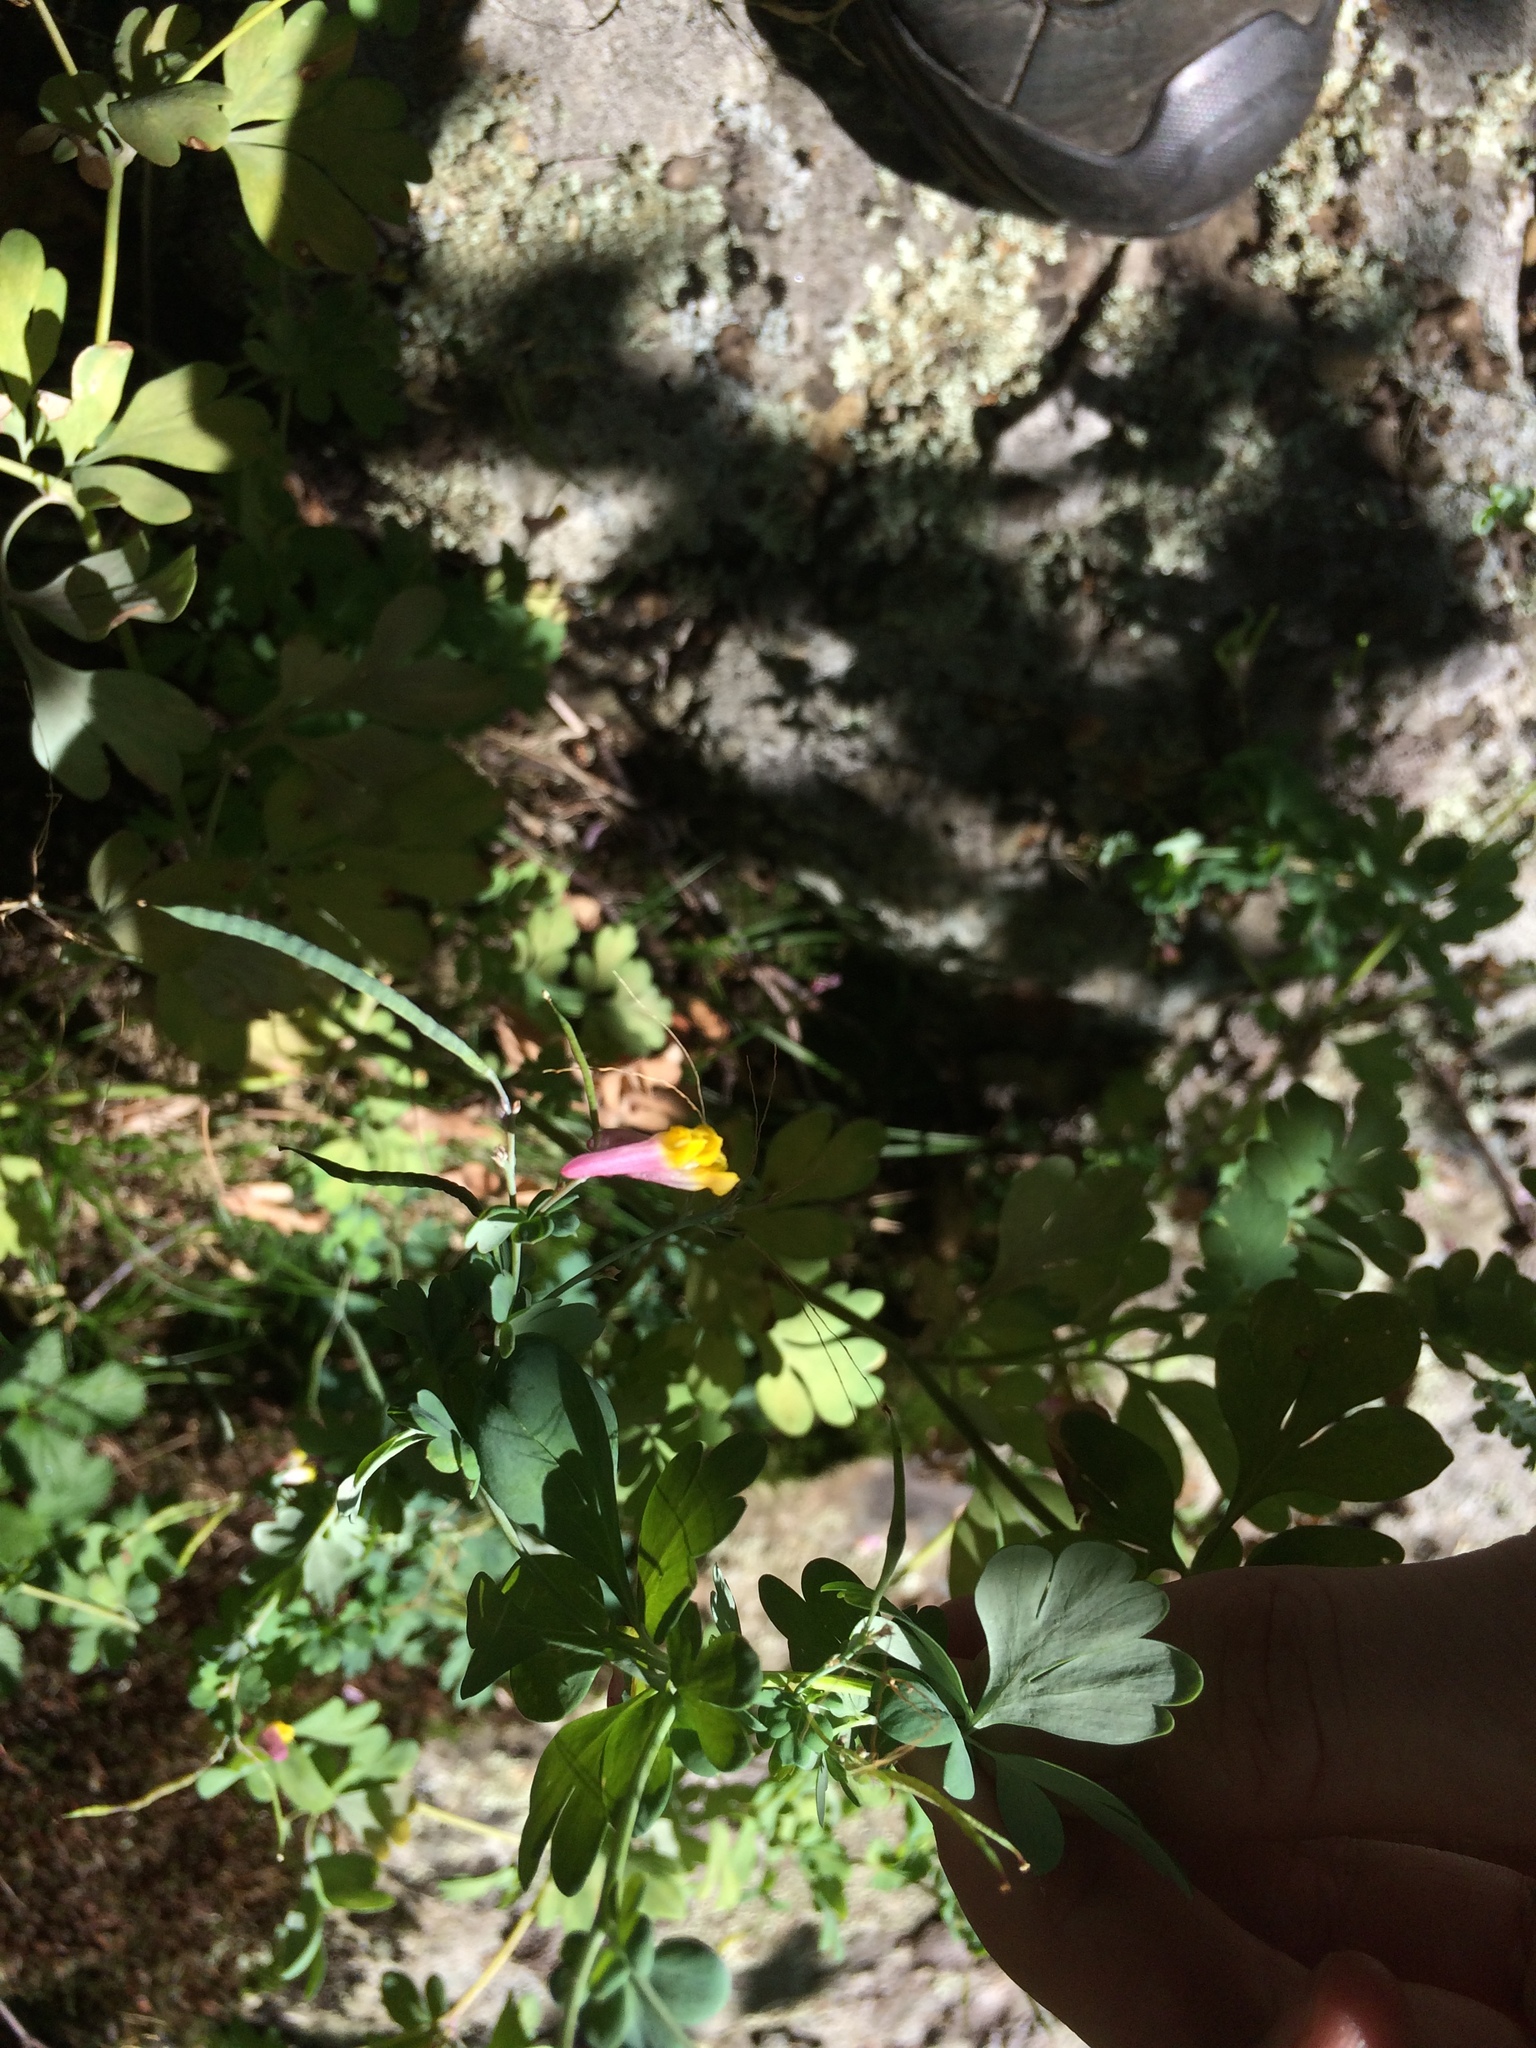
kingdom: Plantae
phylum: Tracheophyta
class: Magnoliopsida
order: Ranunculales
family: Papaveraceae
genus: Capnoides
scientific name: Capnoides sempervirens
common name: Rock harlequin
